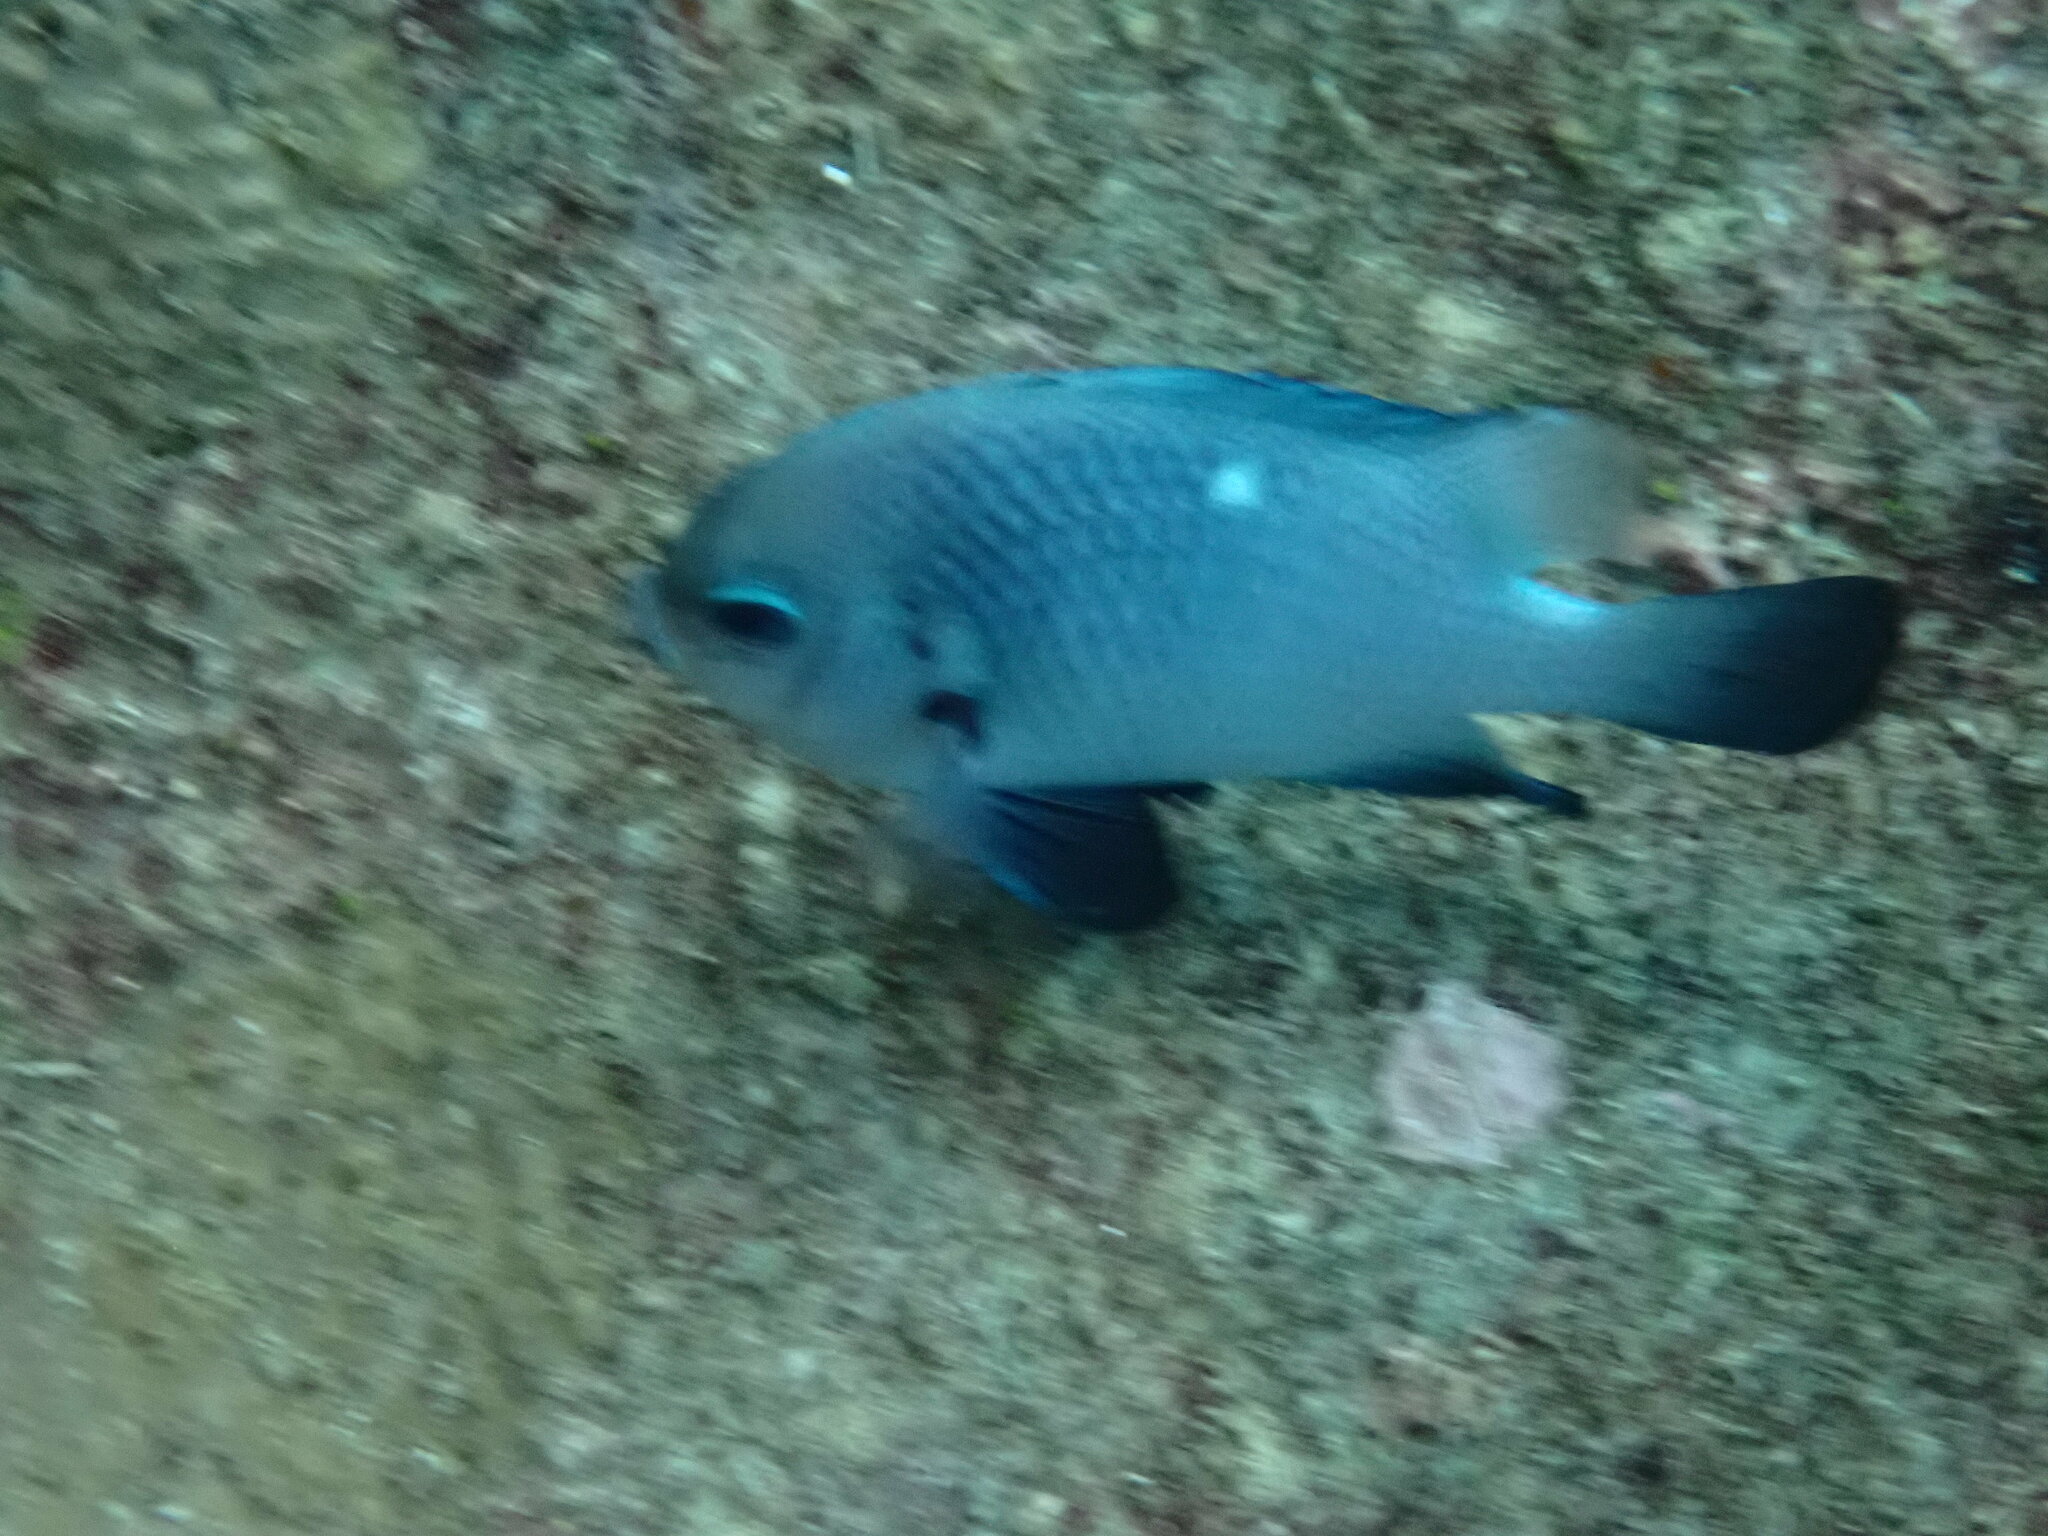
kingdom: Animalia
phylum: Chordata
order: Perciformes
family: Pomacentridae
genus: Dascyllus
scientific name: Dascyllus trimaculatus
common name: Threespot dascyllus
